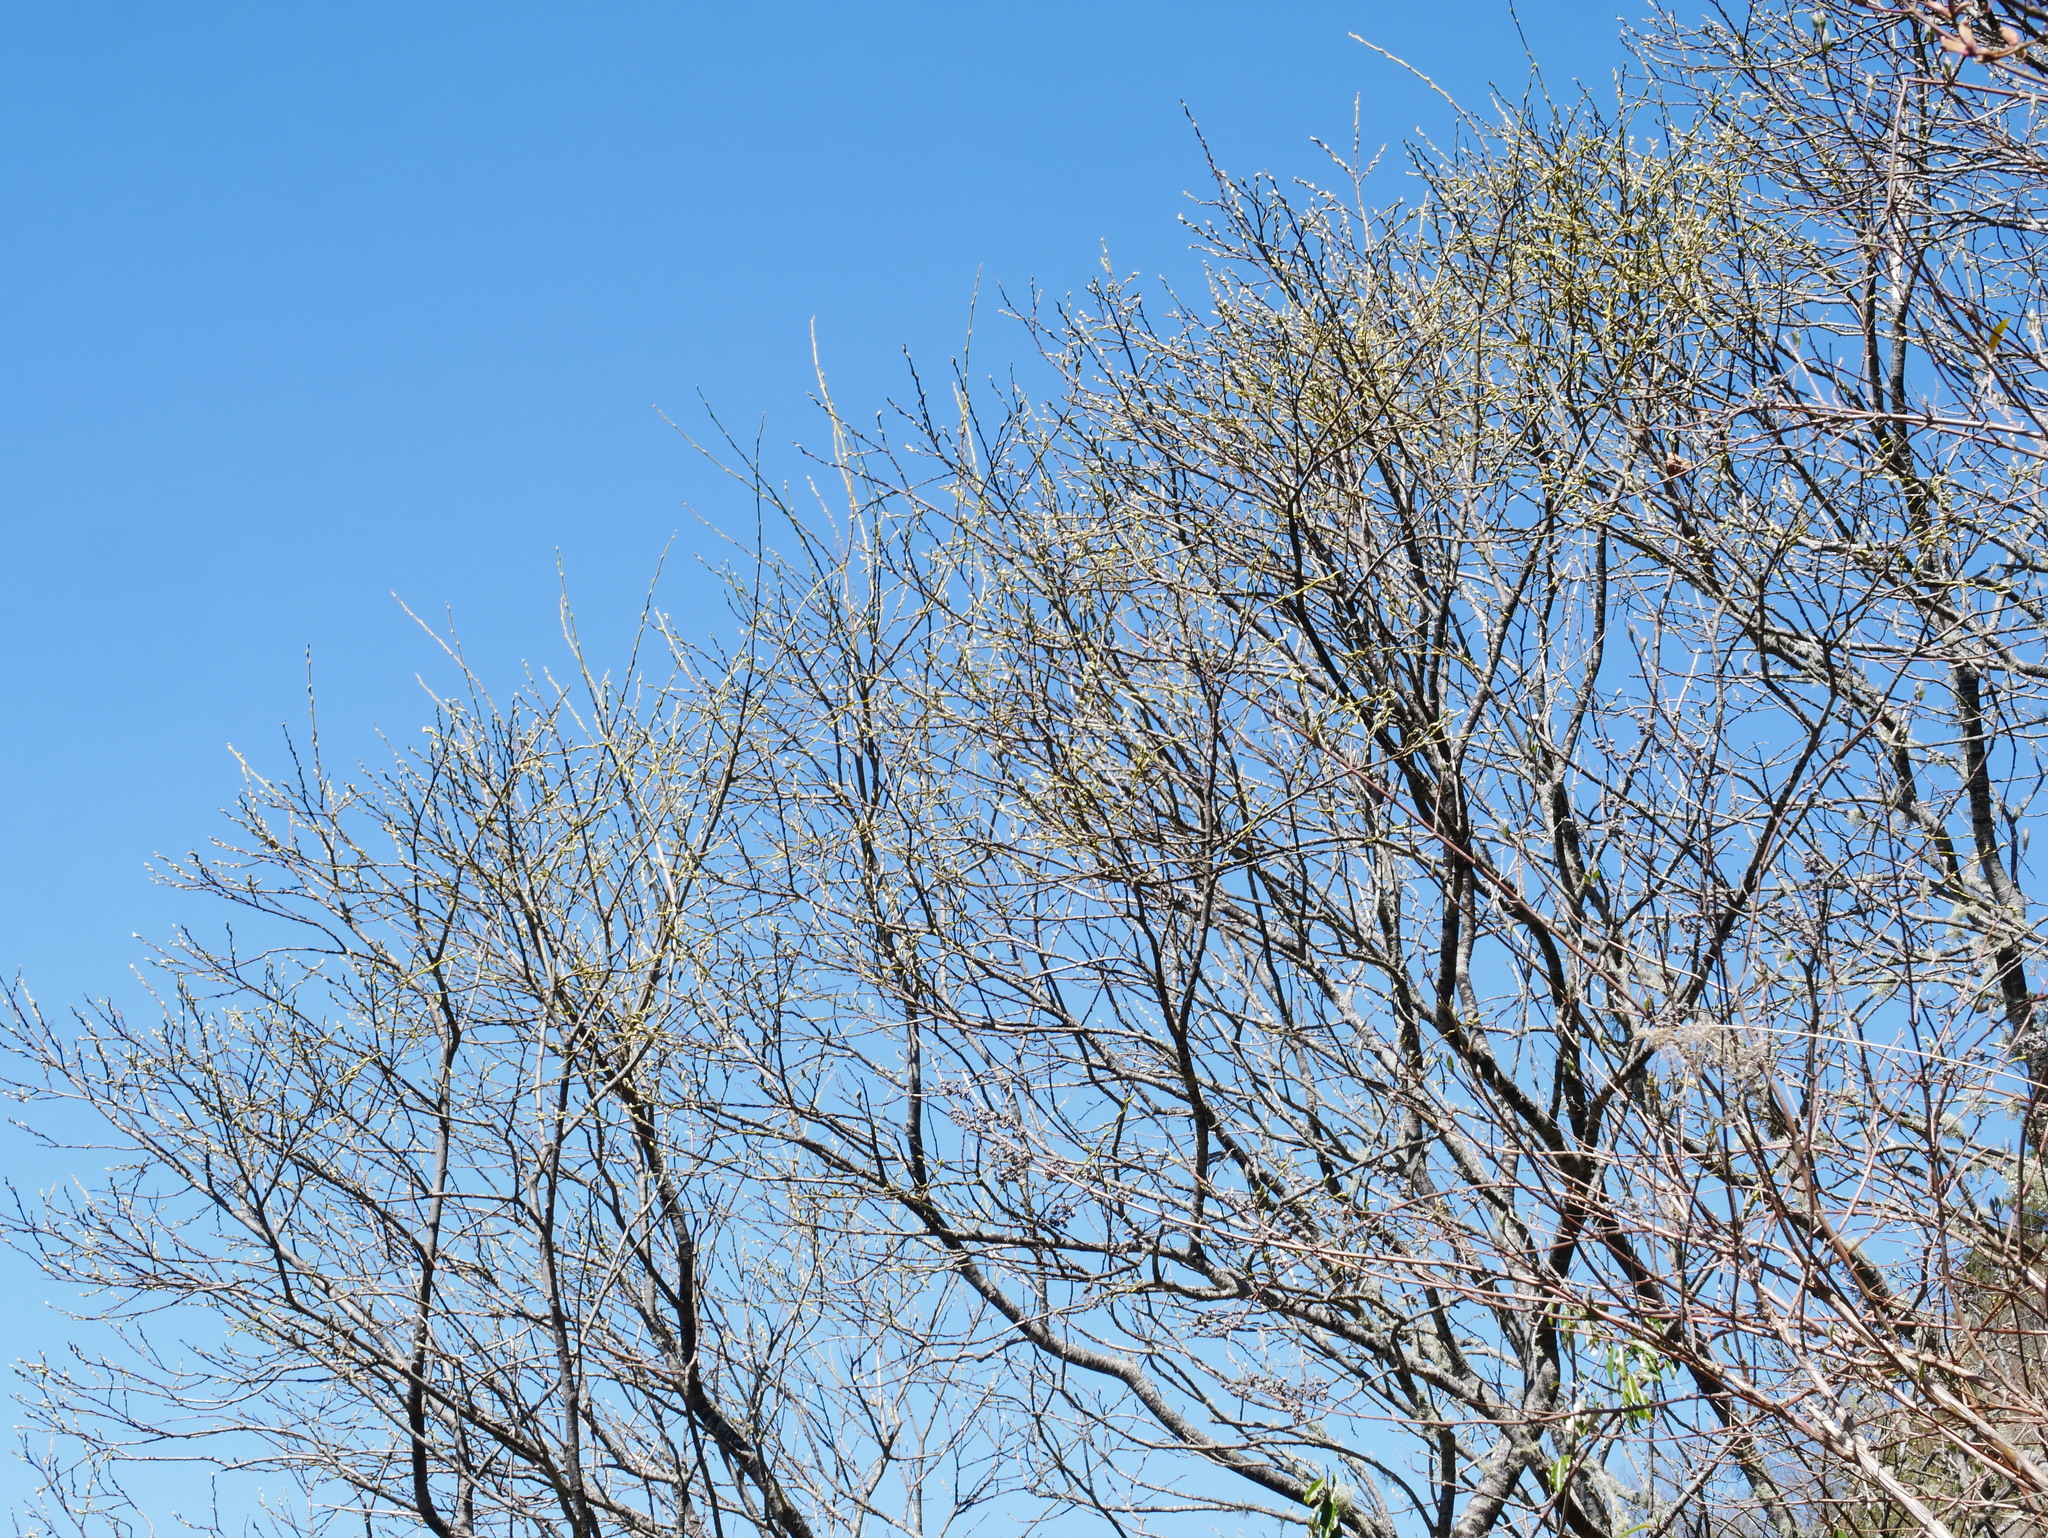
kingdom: Plantae
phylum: Tracheophyta
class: Magnoliopsida
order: Malpighiales
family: Salicaceae
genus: Salix
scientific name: Salix fulvopubescens
